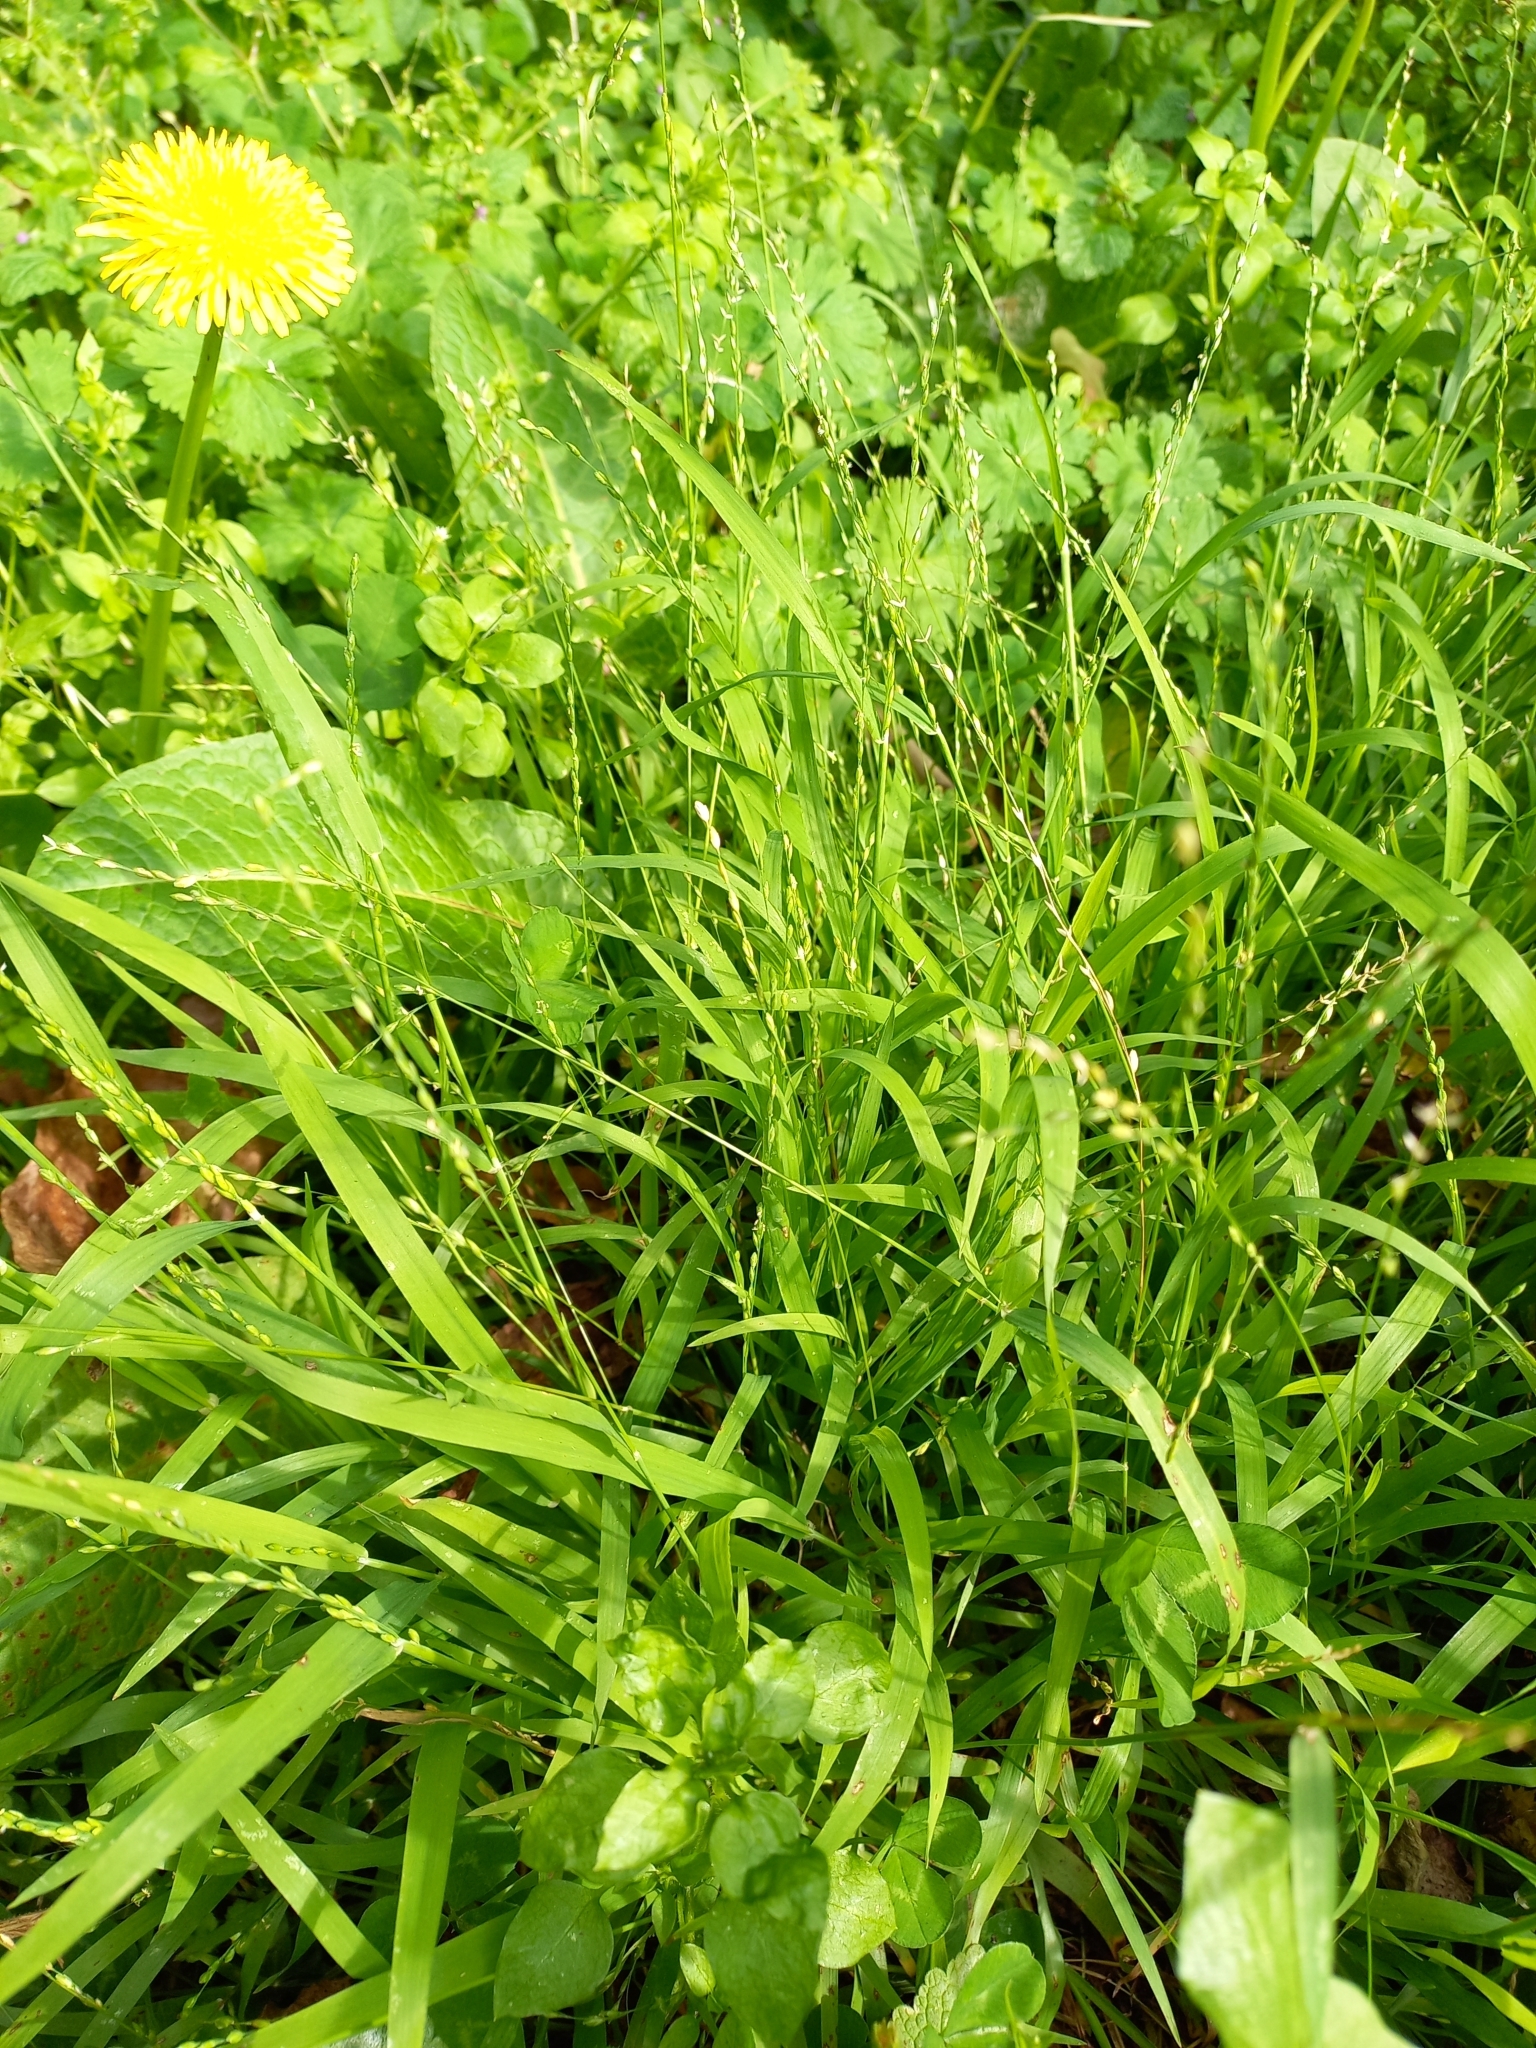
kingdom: Plantae
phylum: Tracheophyta
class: Liliopsida
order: Poales
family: Poaceae
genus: Ehrharta
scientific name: Ehrharta erecta
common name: Panic veldtgrass
